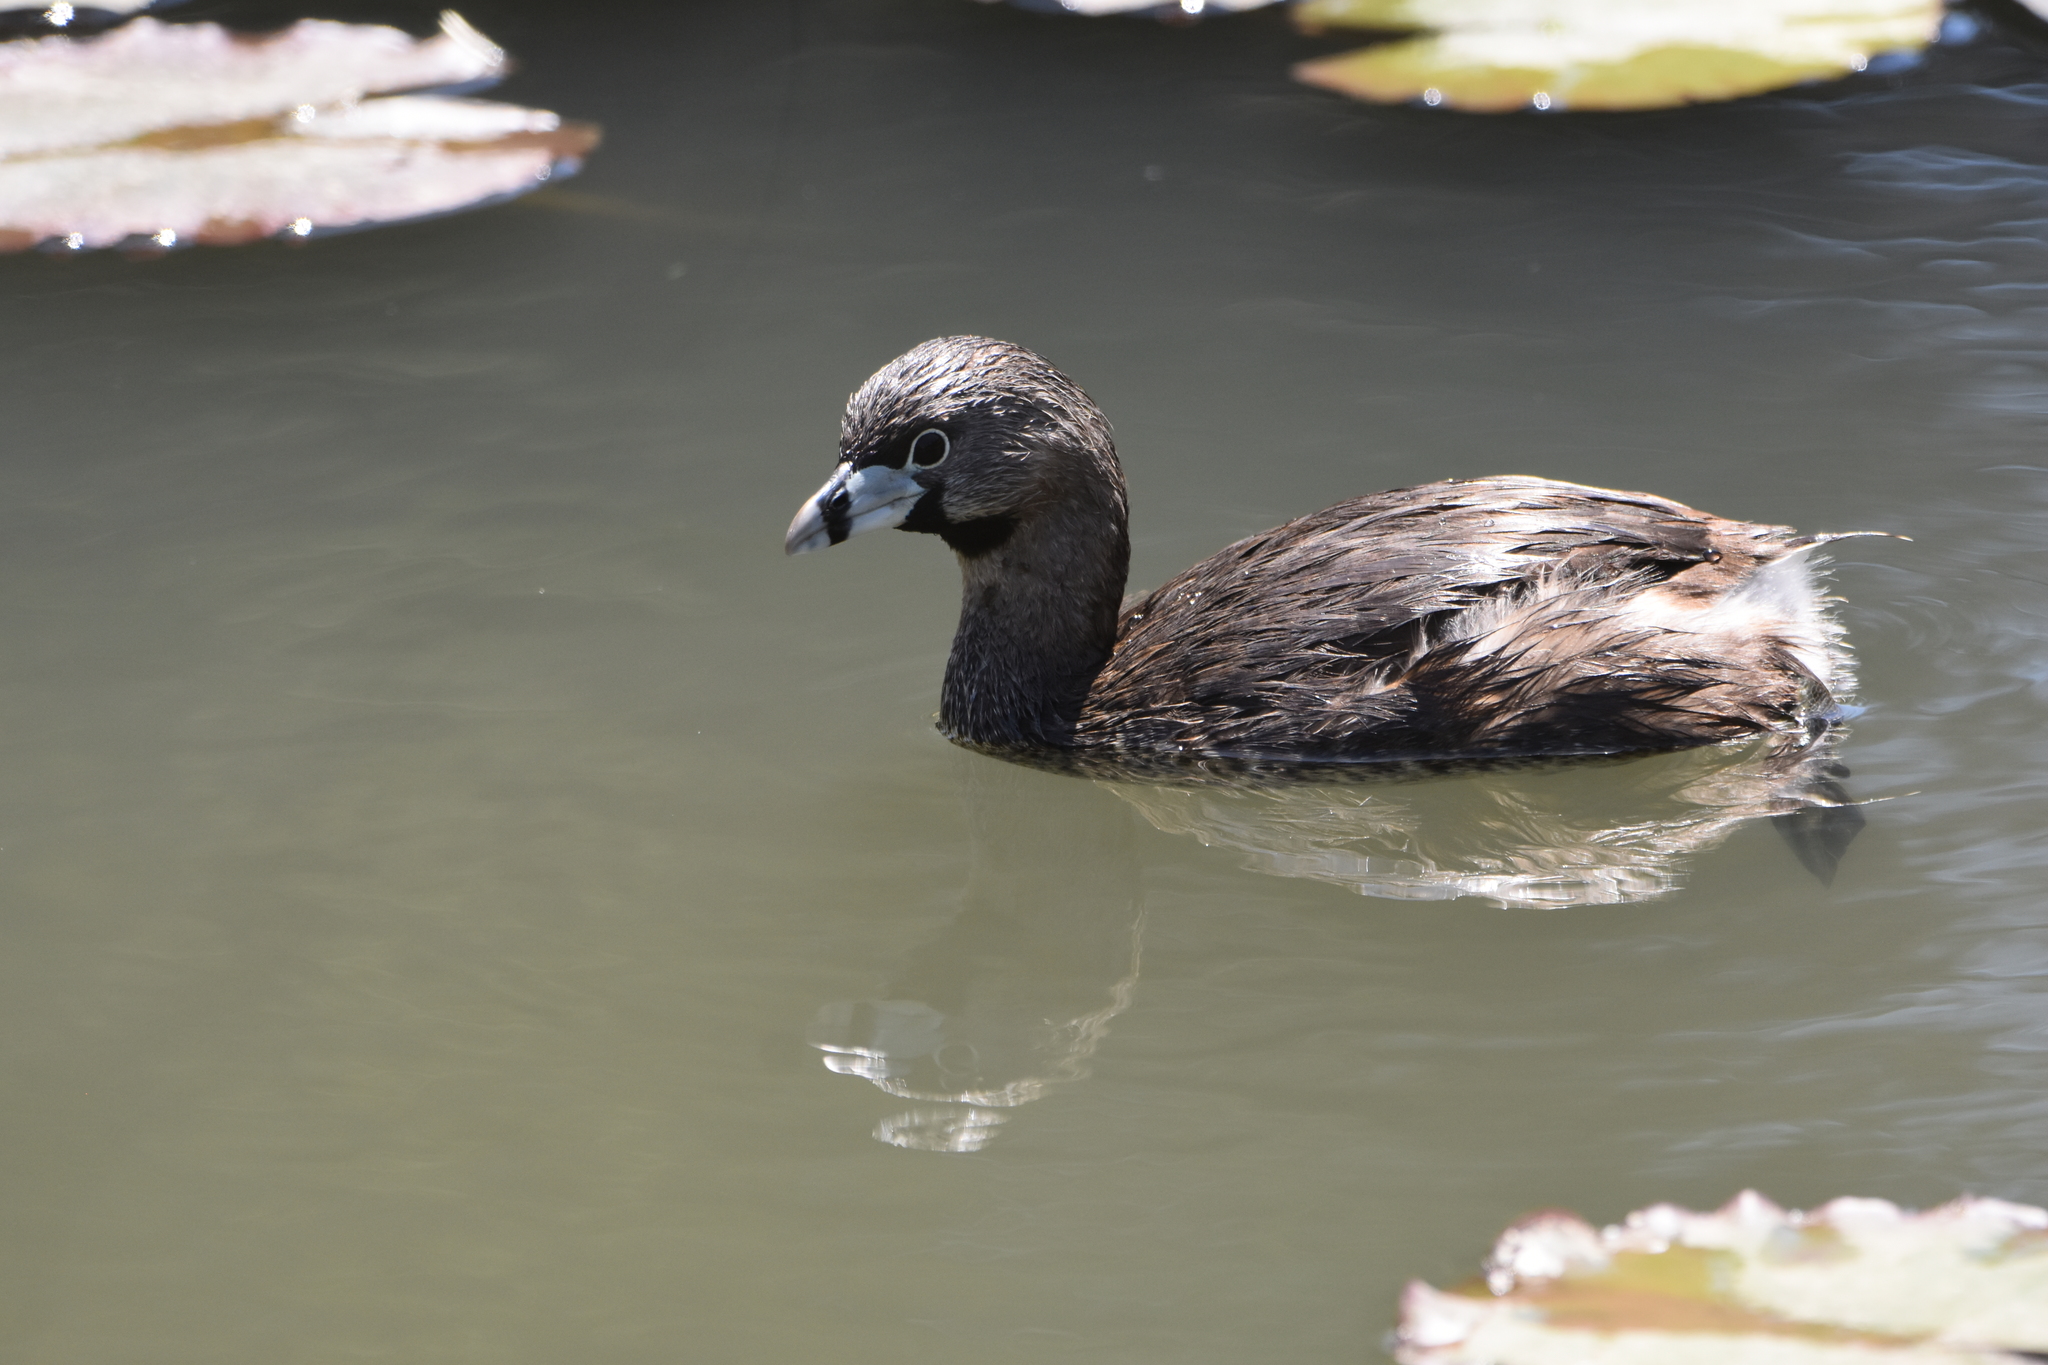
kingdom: Animalia
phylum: Chordata
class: Aves
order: Podicipediformes
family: Podicipedidae
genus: Podilymbus
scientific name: Podilymbus podiceps
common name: Pied-billed grebe
